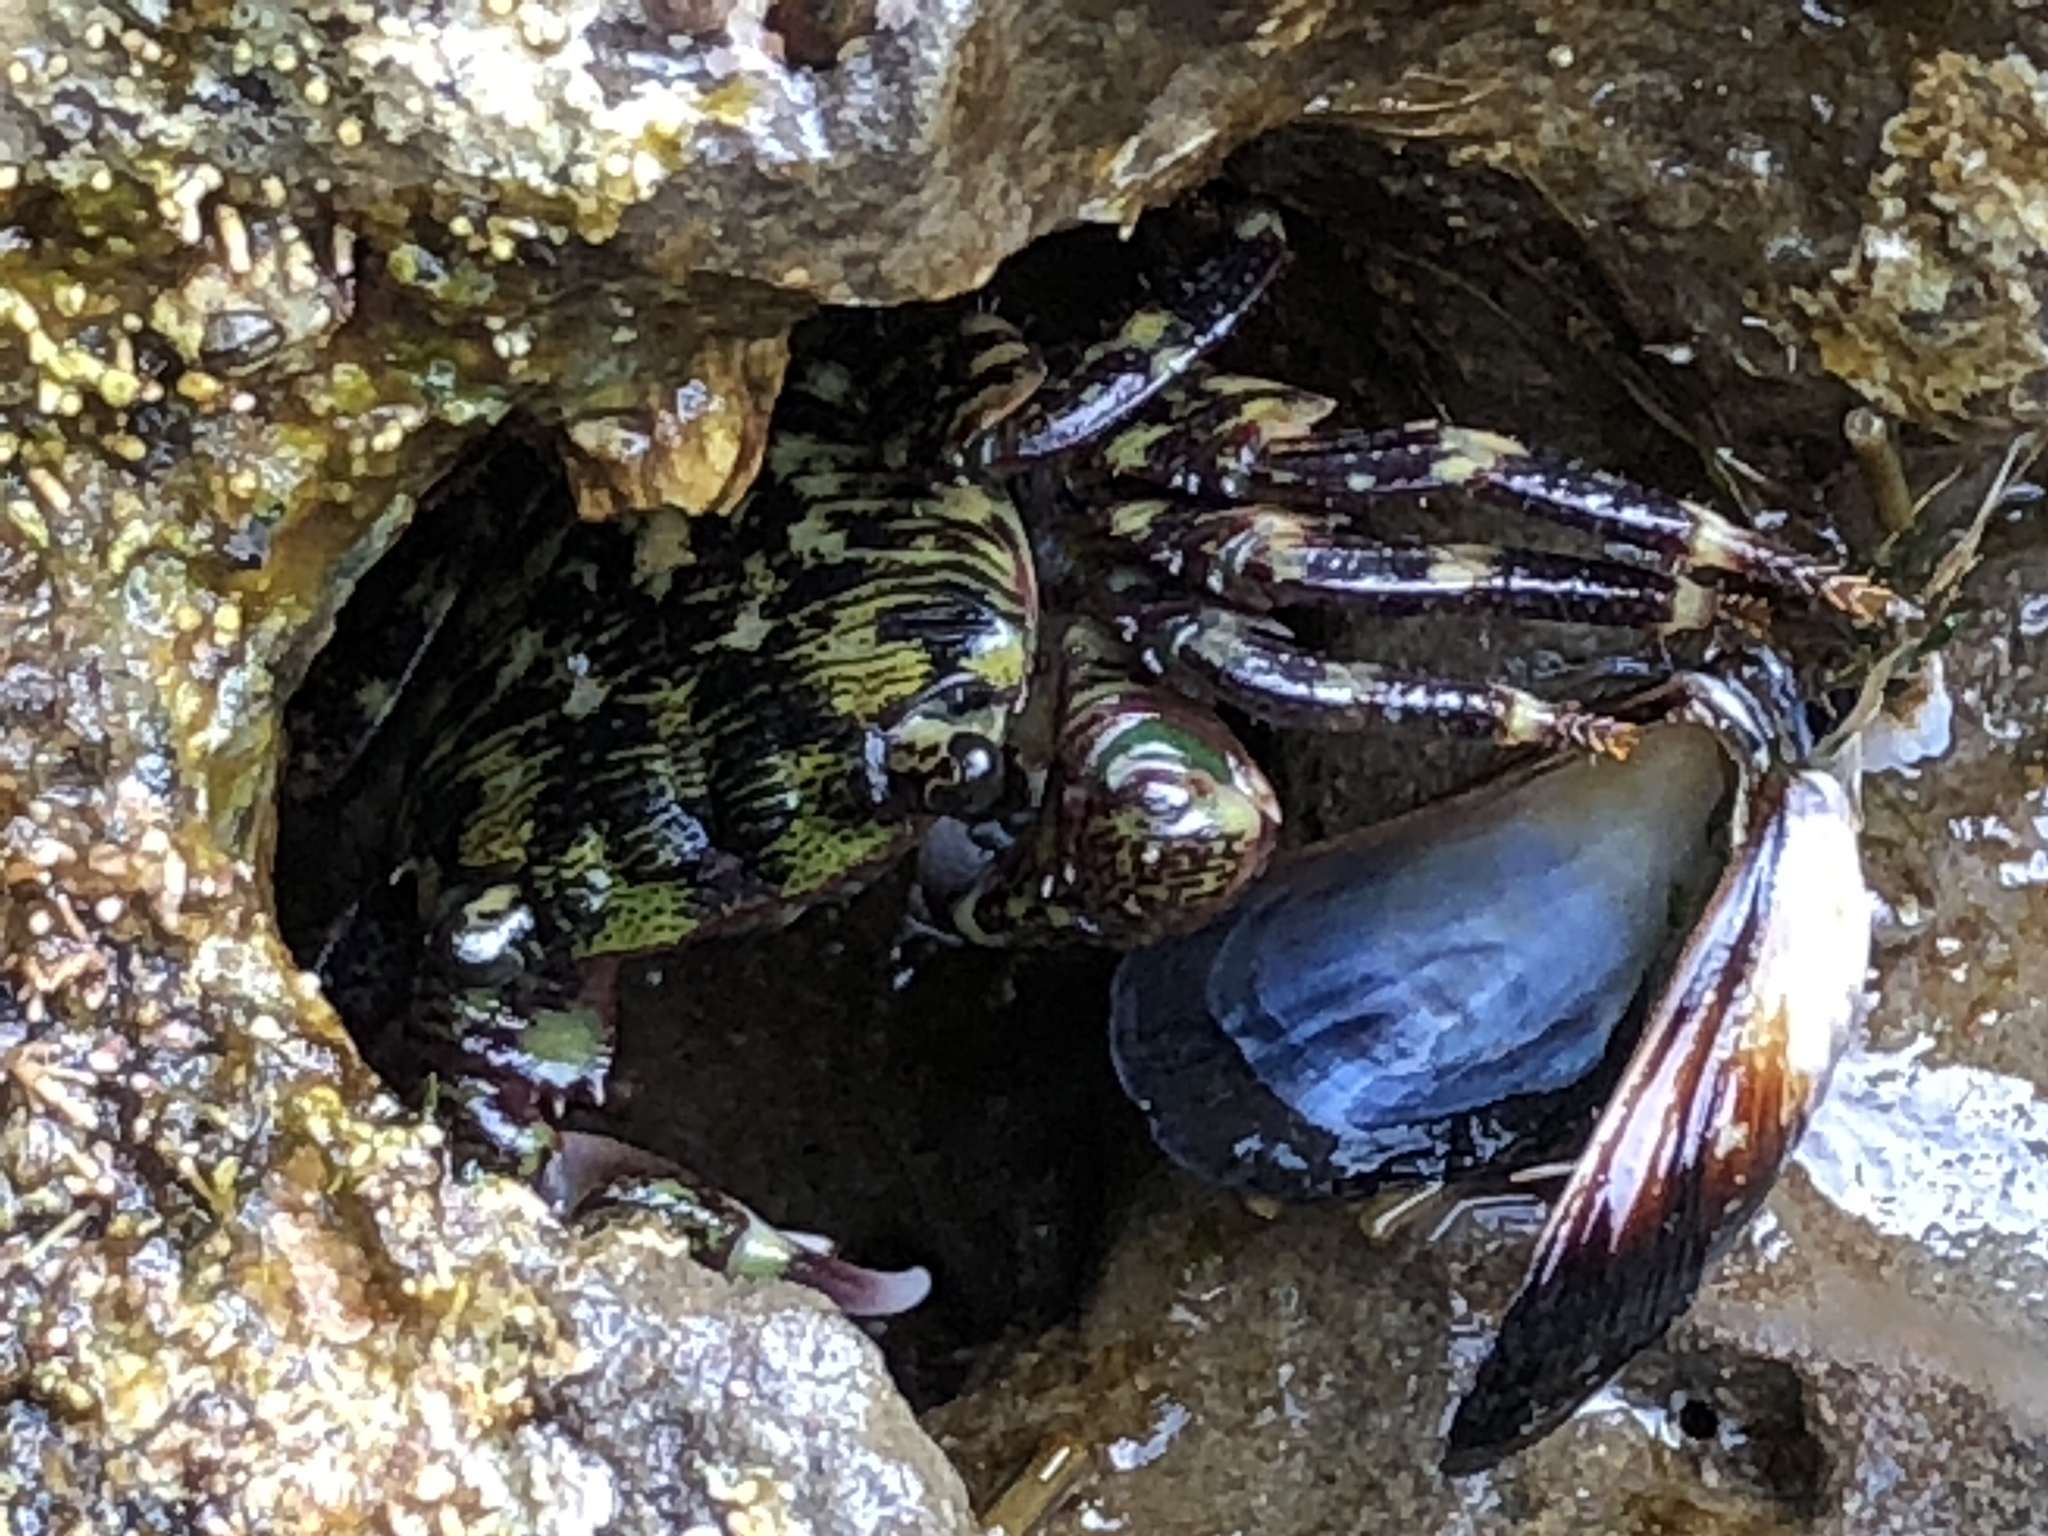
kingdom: Animalia
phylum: Arthropoda
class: Malacostraca
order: Decapoda
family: Grapsidae
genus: Pachygrapsus
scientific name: Pachygrapsus crassipes
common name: Striped shore crab
